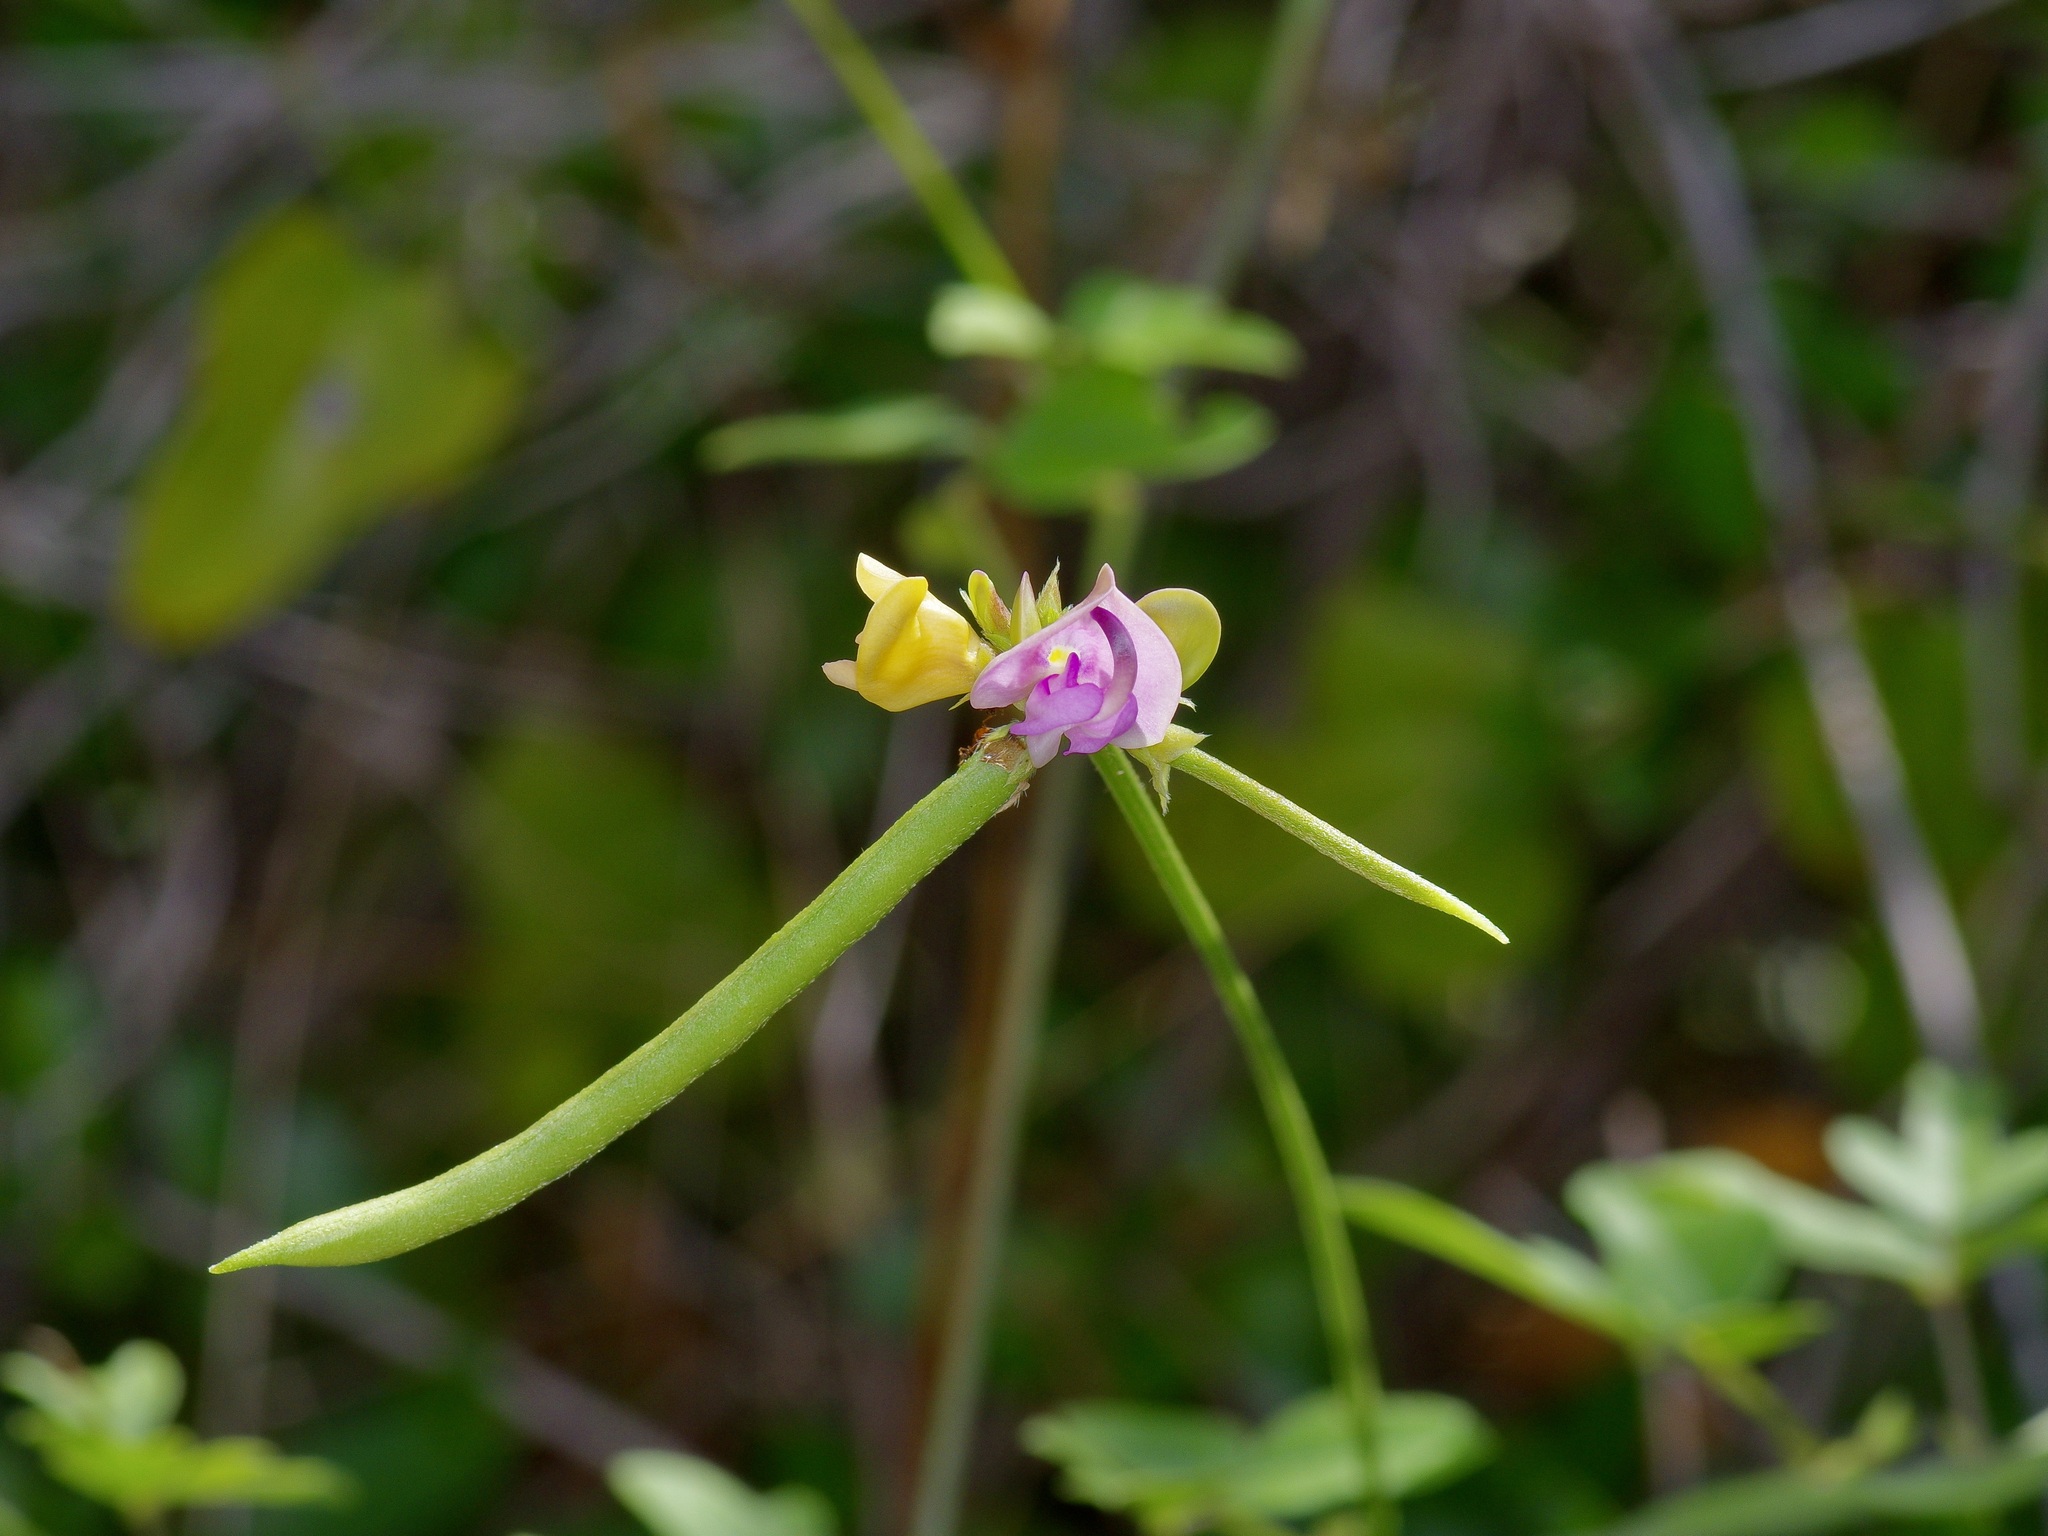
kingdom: Plantae
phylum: Tracheophyta
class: Magnoliopsida
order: Fabales
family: Fabaceae
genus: Strophostyles
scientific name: Strophostyles helvola
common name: Trailing wild bean
